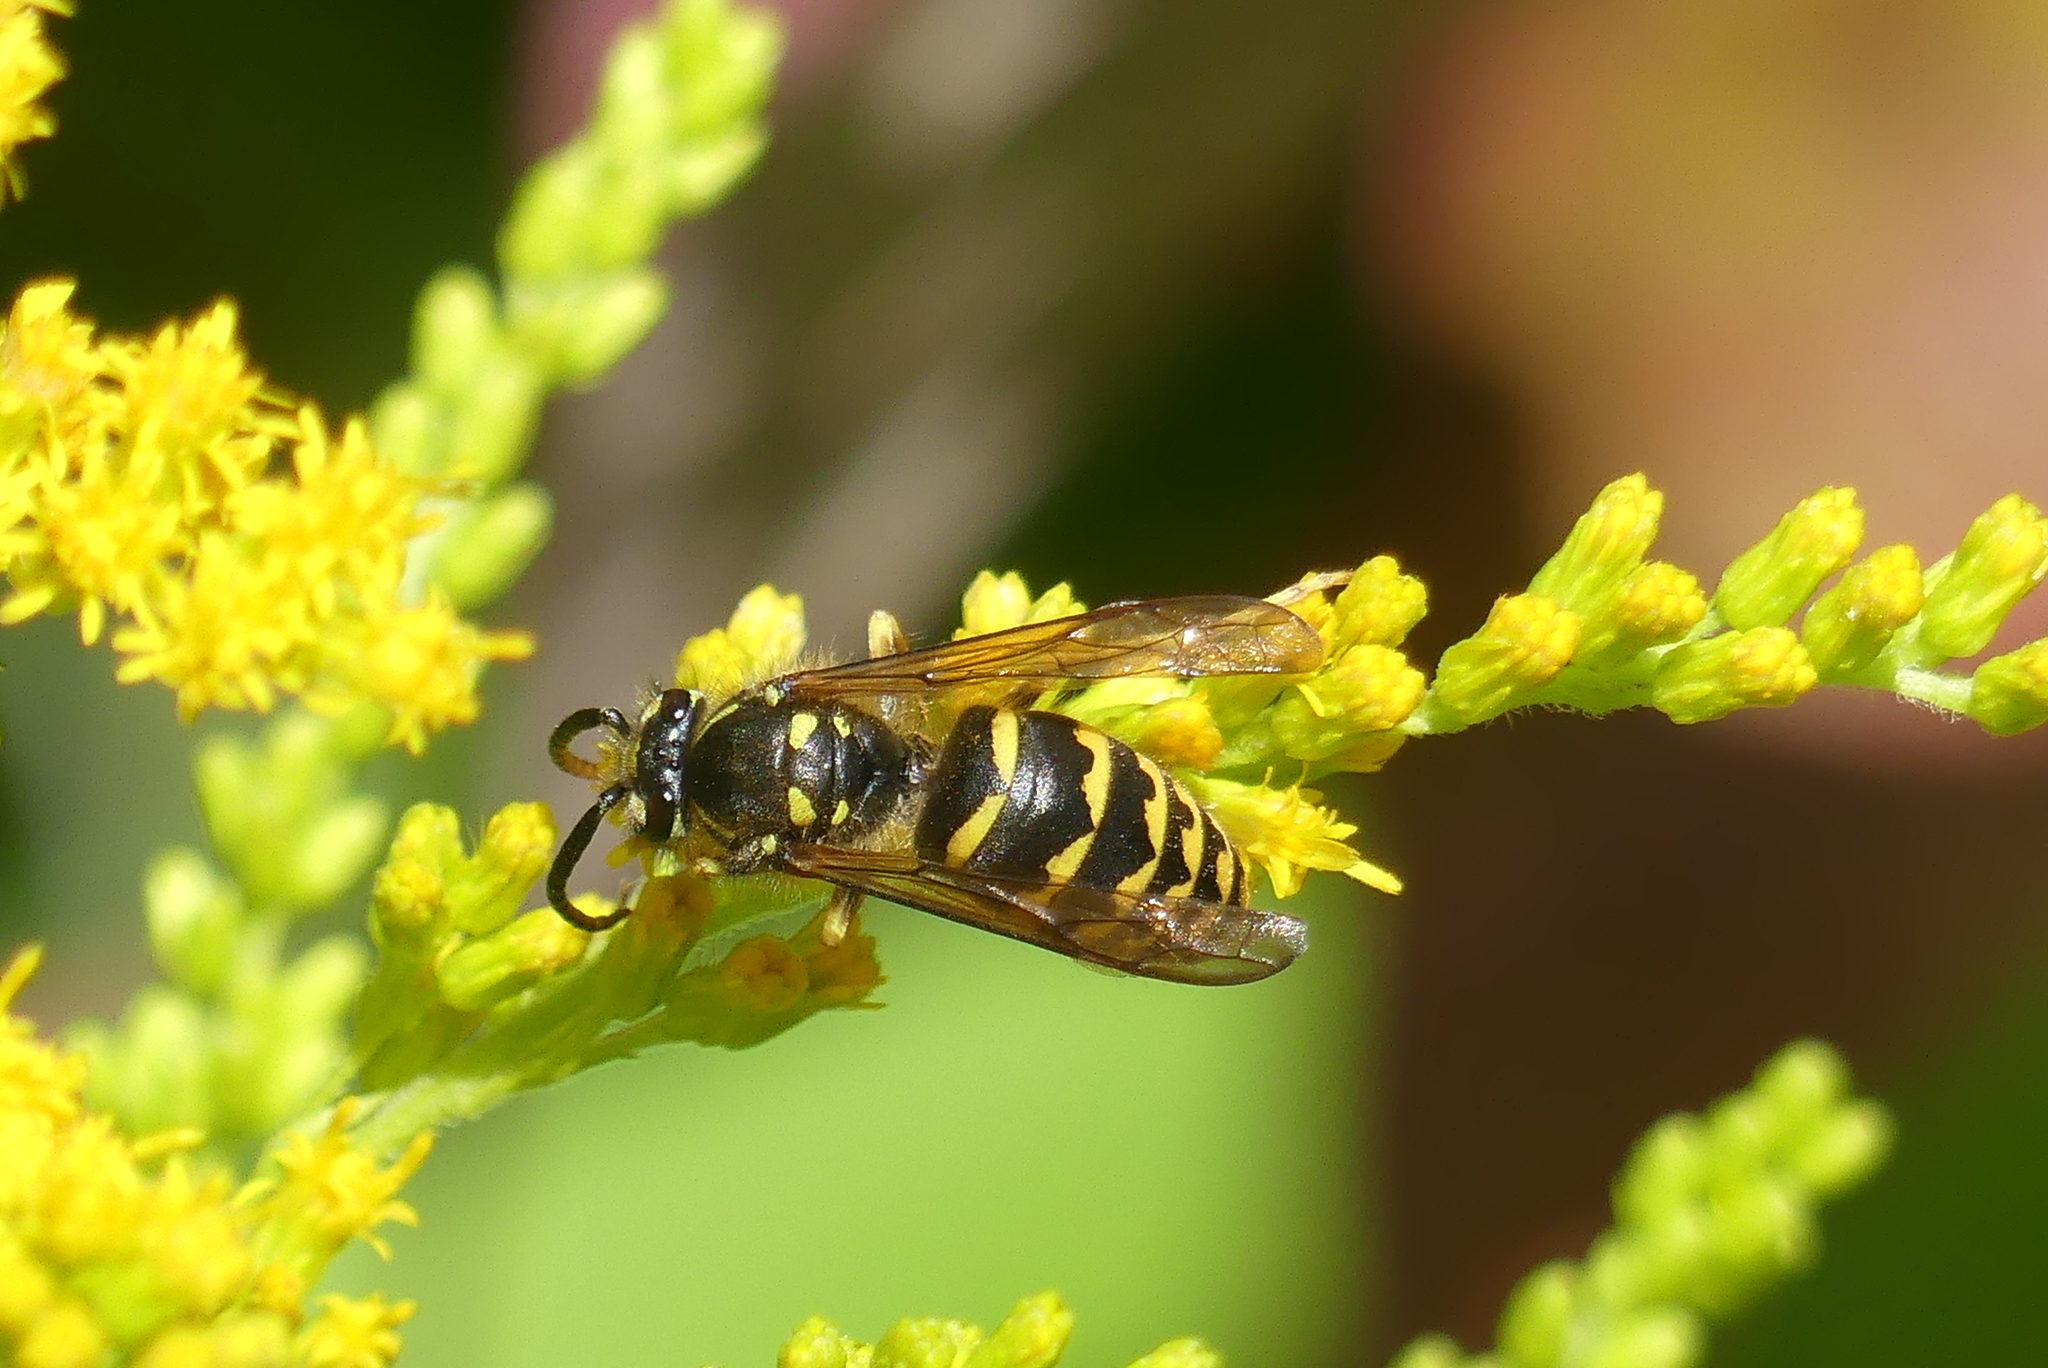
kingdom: Animalia
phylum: Arthropoda
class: Insecta
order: Hymenoptera
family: Vespidae
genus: Dolichovespula
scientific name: Dolichovespula arenaria
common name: Aerial yellowjacket
